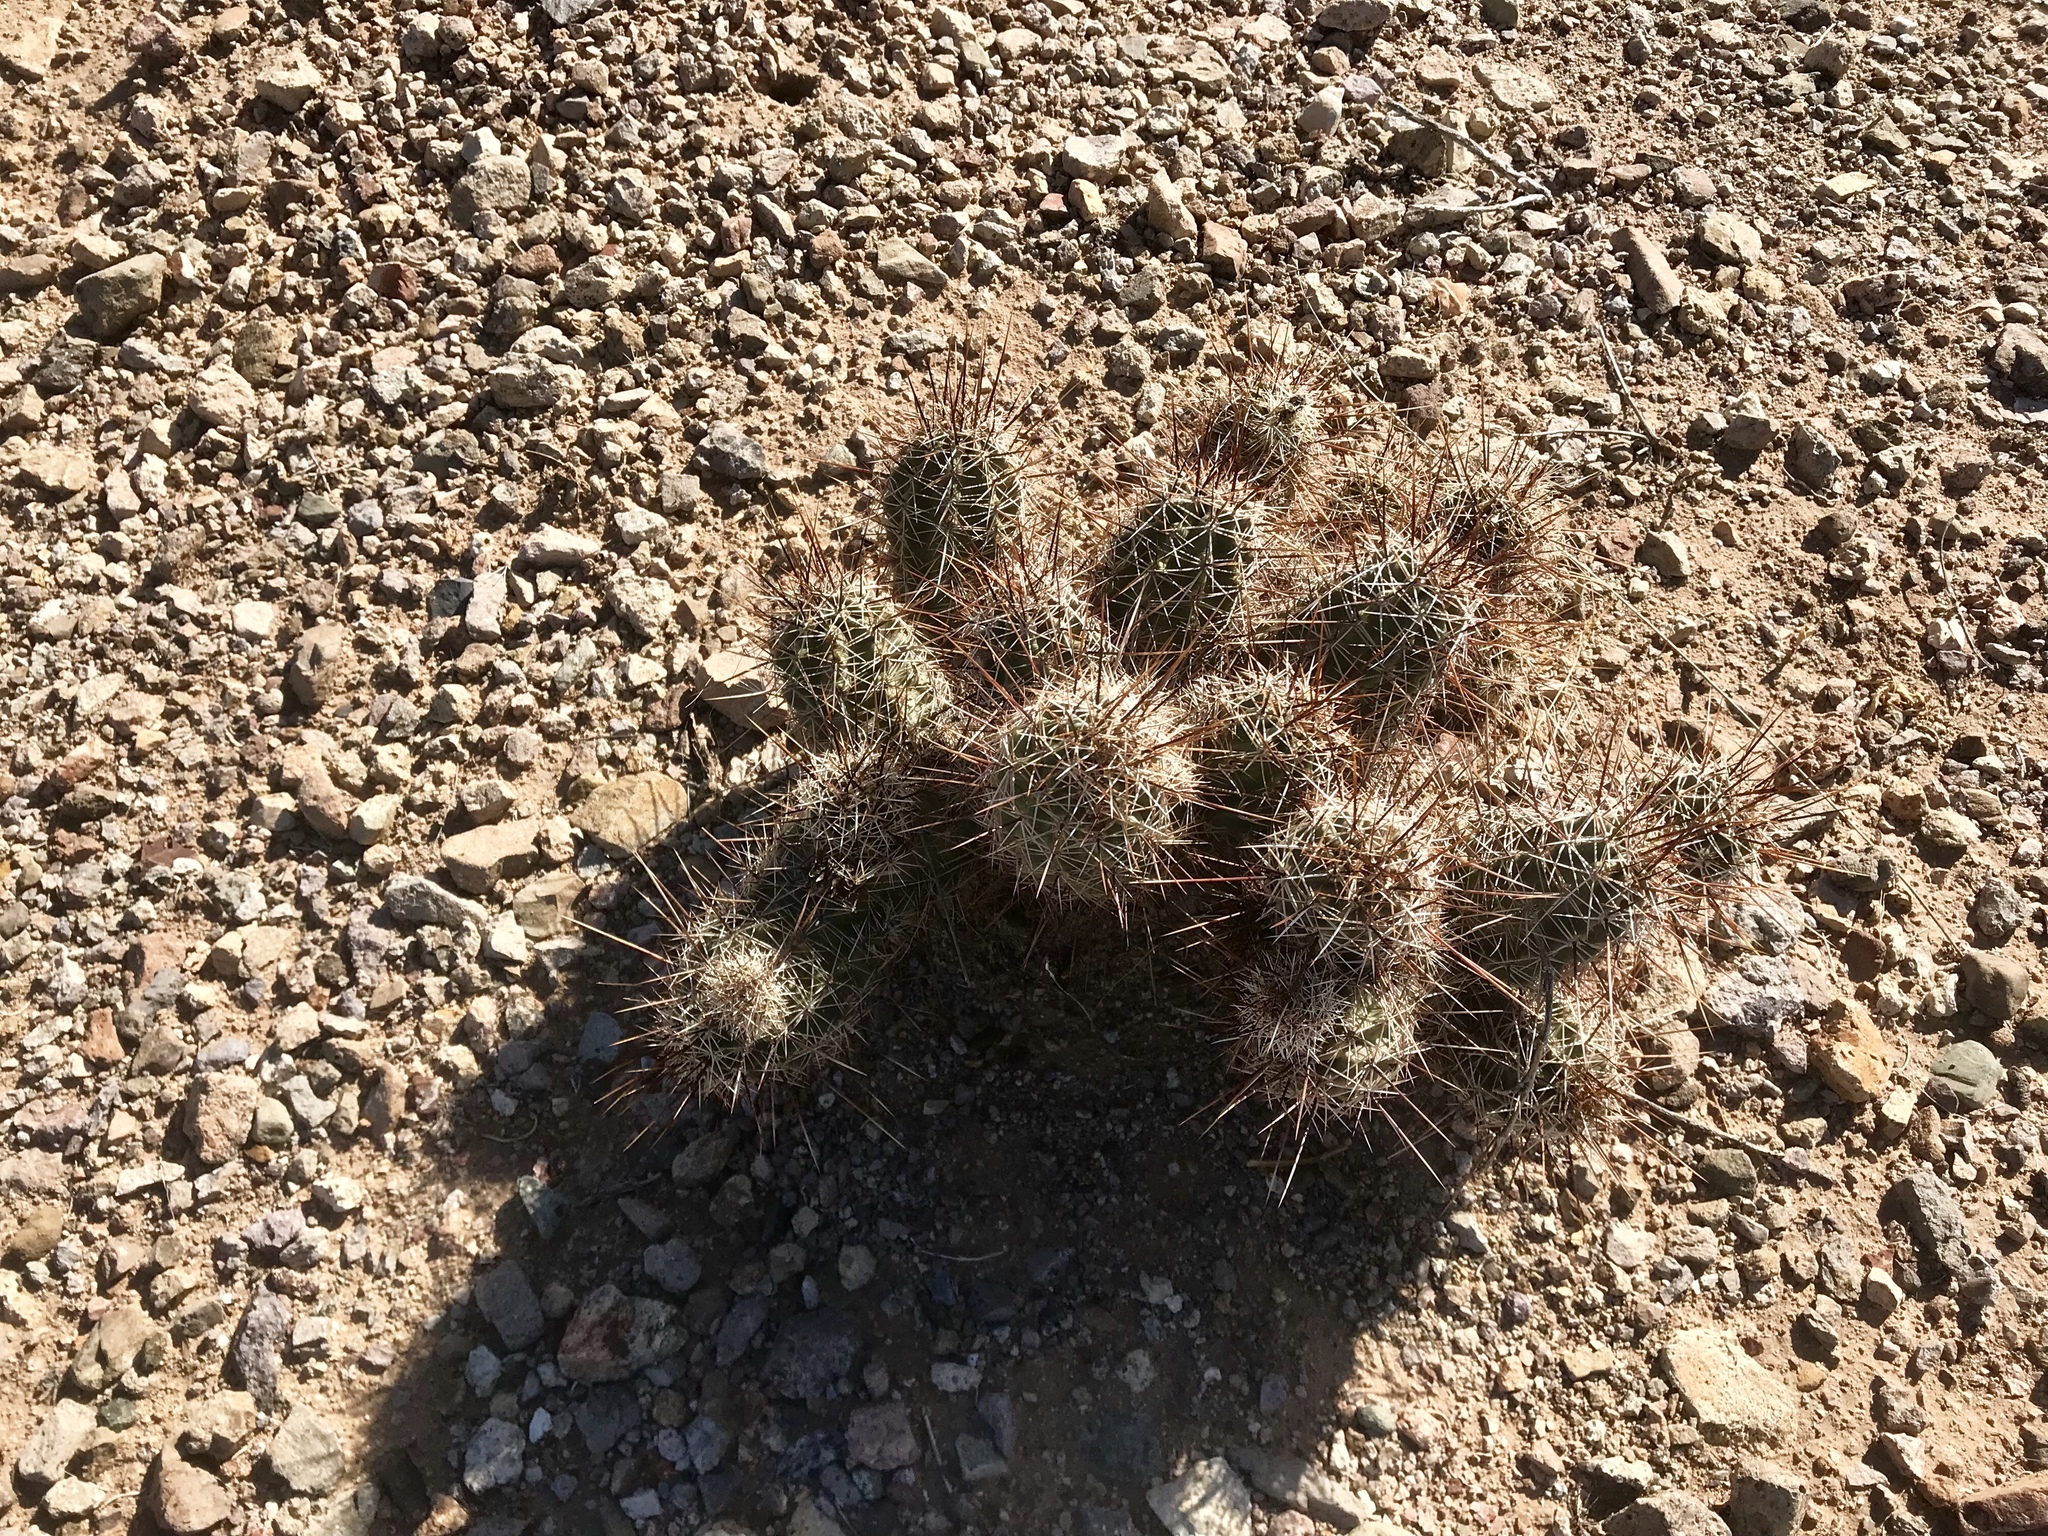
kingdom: Plantae
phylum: Tracheophyta
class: Magnoliopsida
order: Caryophyllales
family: Cactaceae
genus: Echinocereus
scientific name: Echinocereus fasciculatus
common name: Bundle hedgehog
